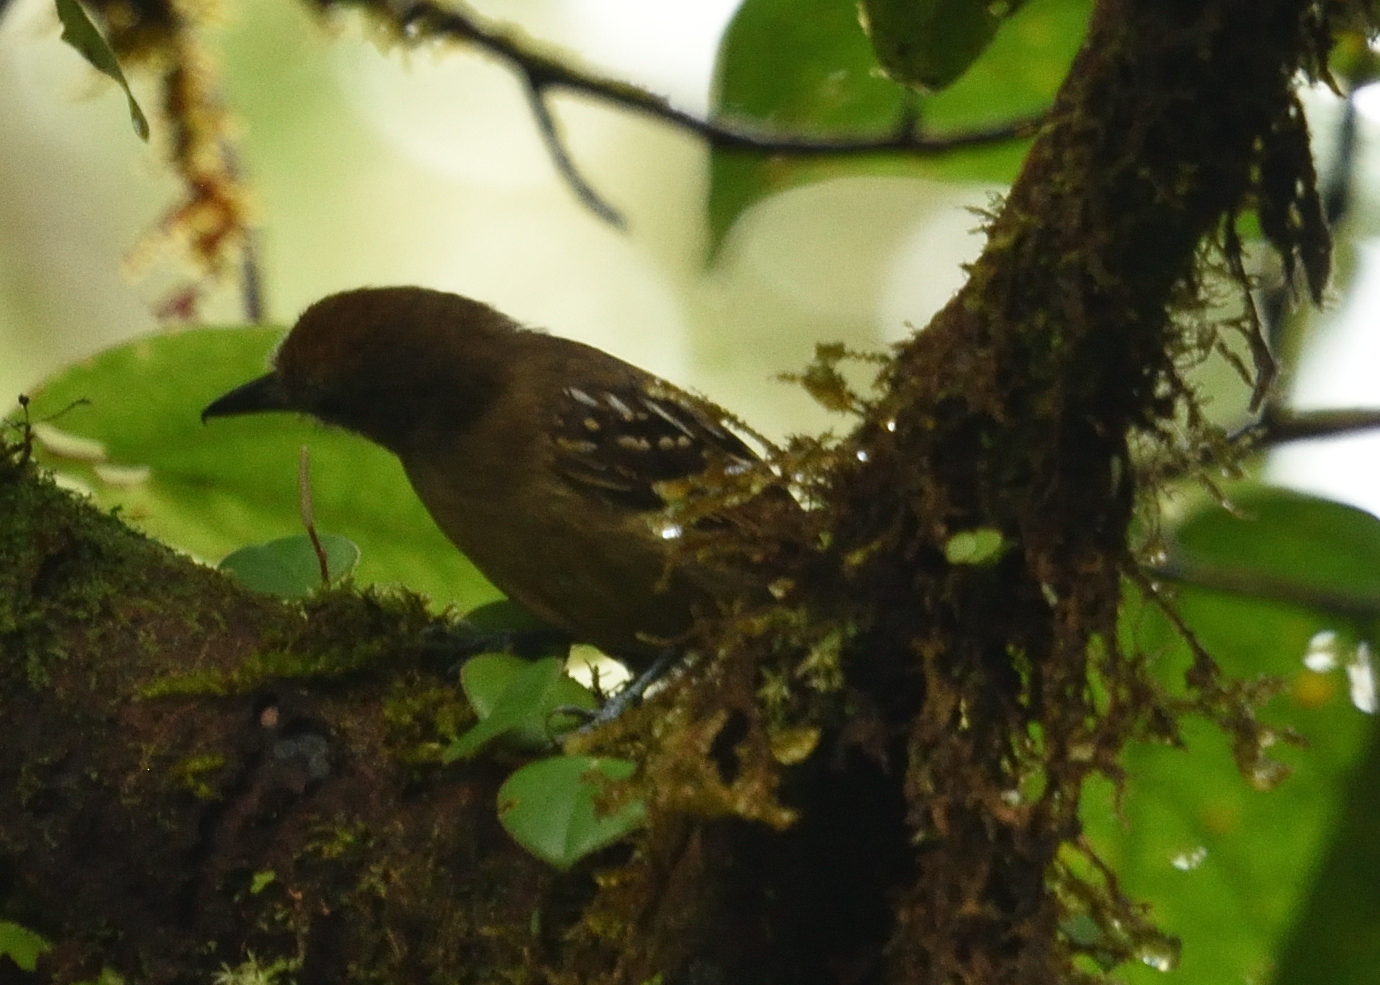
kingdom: Animalia
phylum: Chordata
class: Aves
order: Passeriformes
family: Thamnophilidae
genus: Thamnophilus
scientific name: Thamnophilus atrinucha
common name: Black-crowned antshrike
